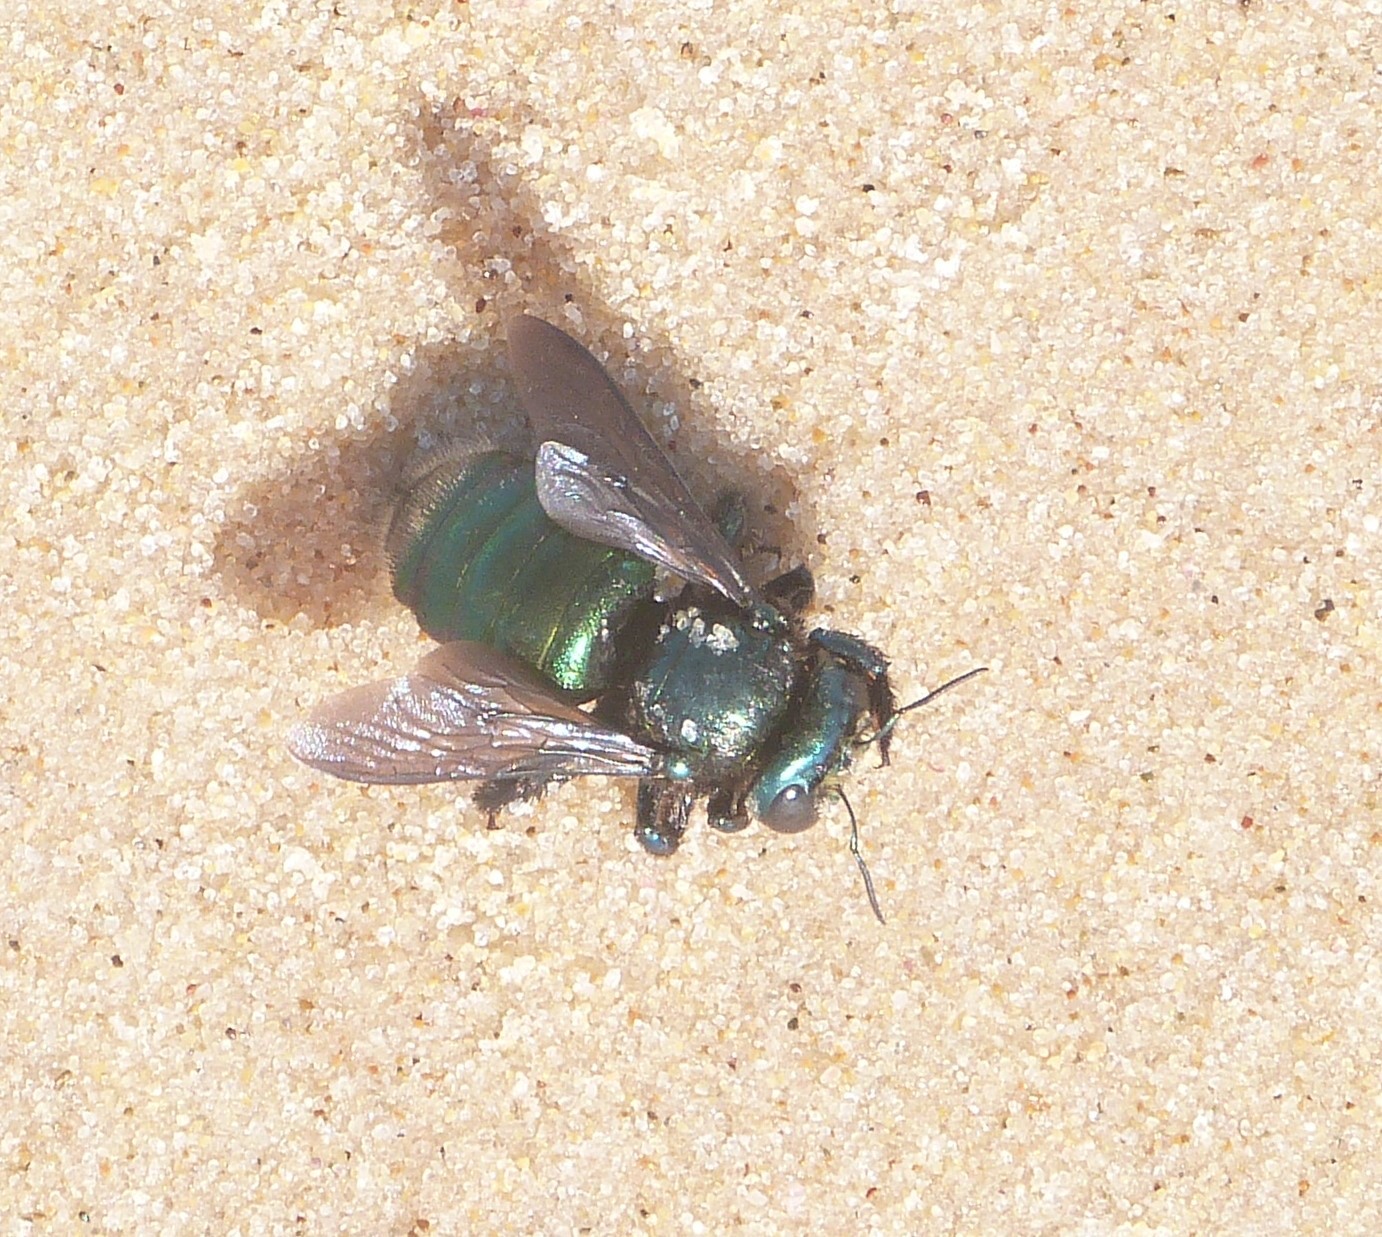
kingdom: Animalia
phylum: Arthropoda
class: Insecta
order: Hymenoptera
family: Apidae
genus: Xylocopa
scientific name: Xylocopa bombylans
